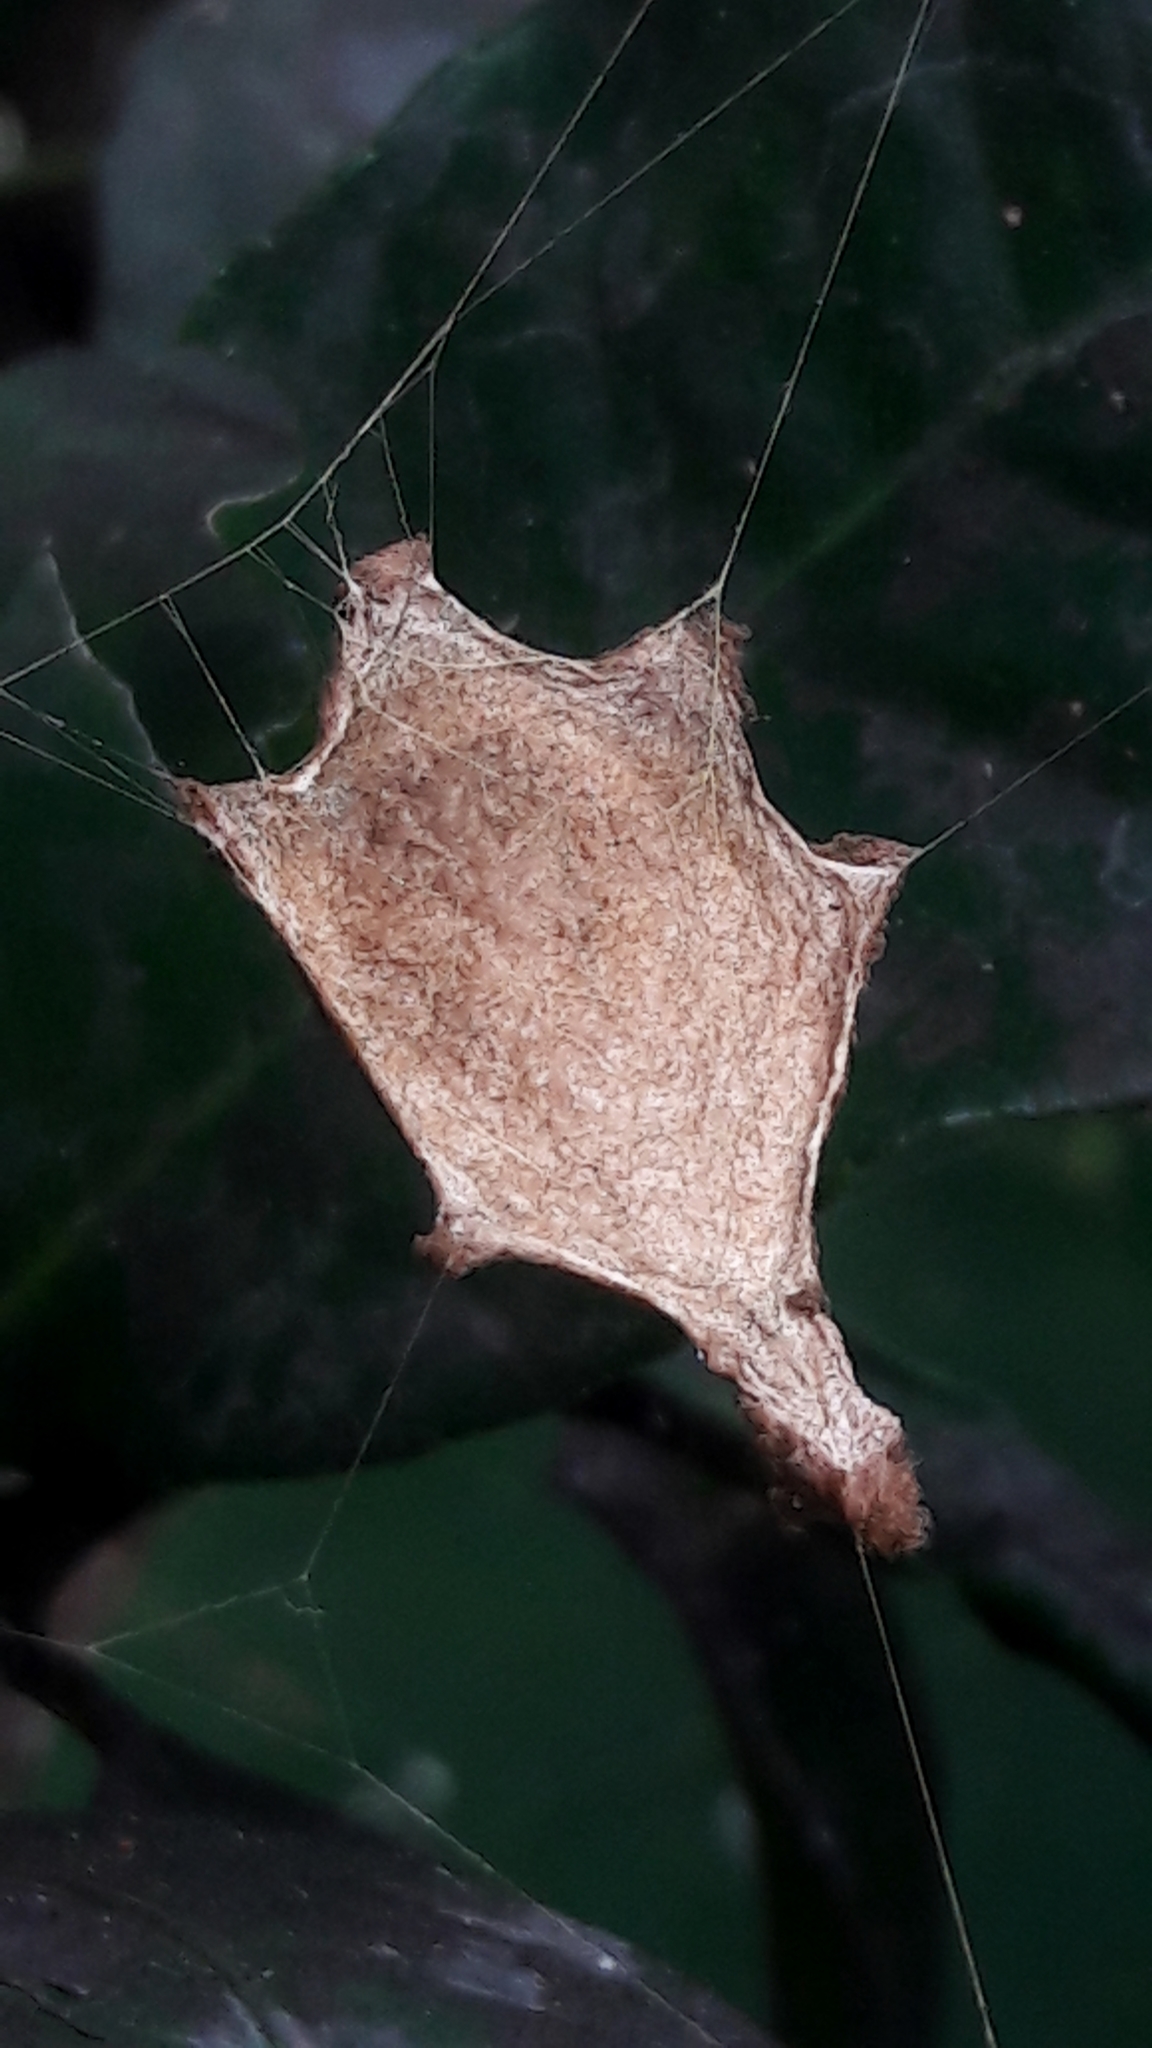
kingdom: Animalia
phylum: Arthropoda
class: Arachnida
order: Araneae
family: Araneidae
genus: Argiope
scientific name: Argiope argentata
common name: Orb weavers
